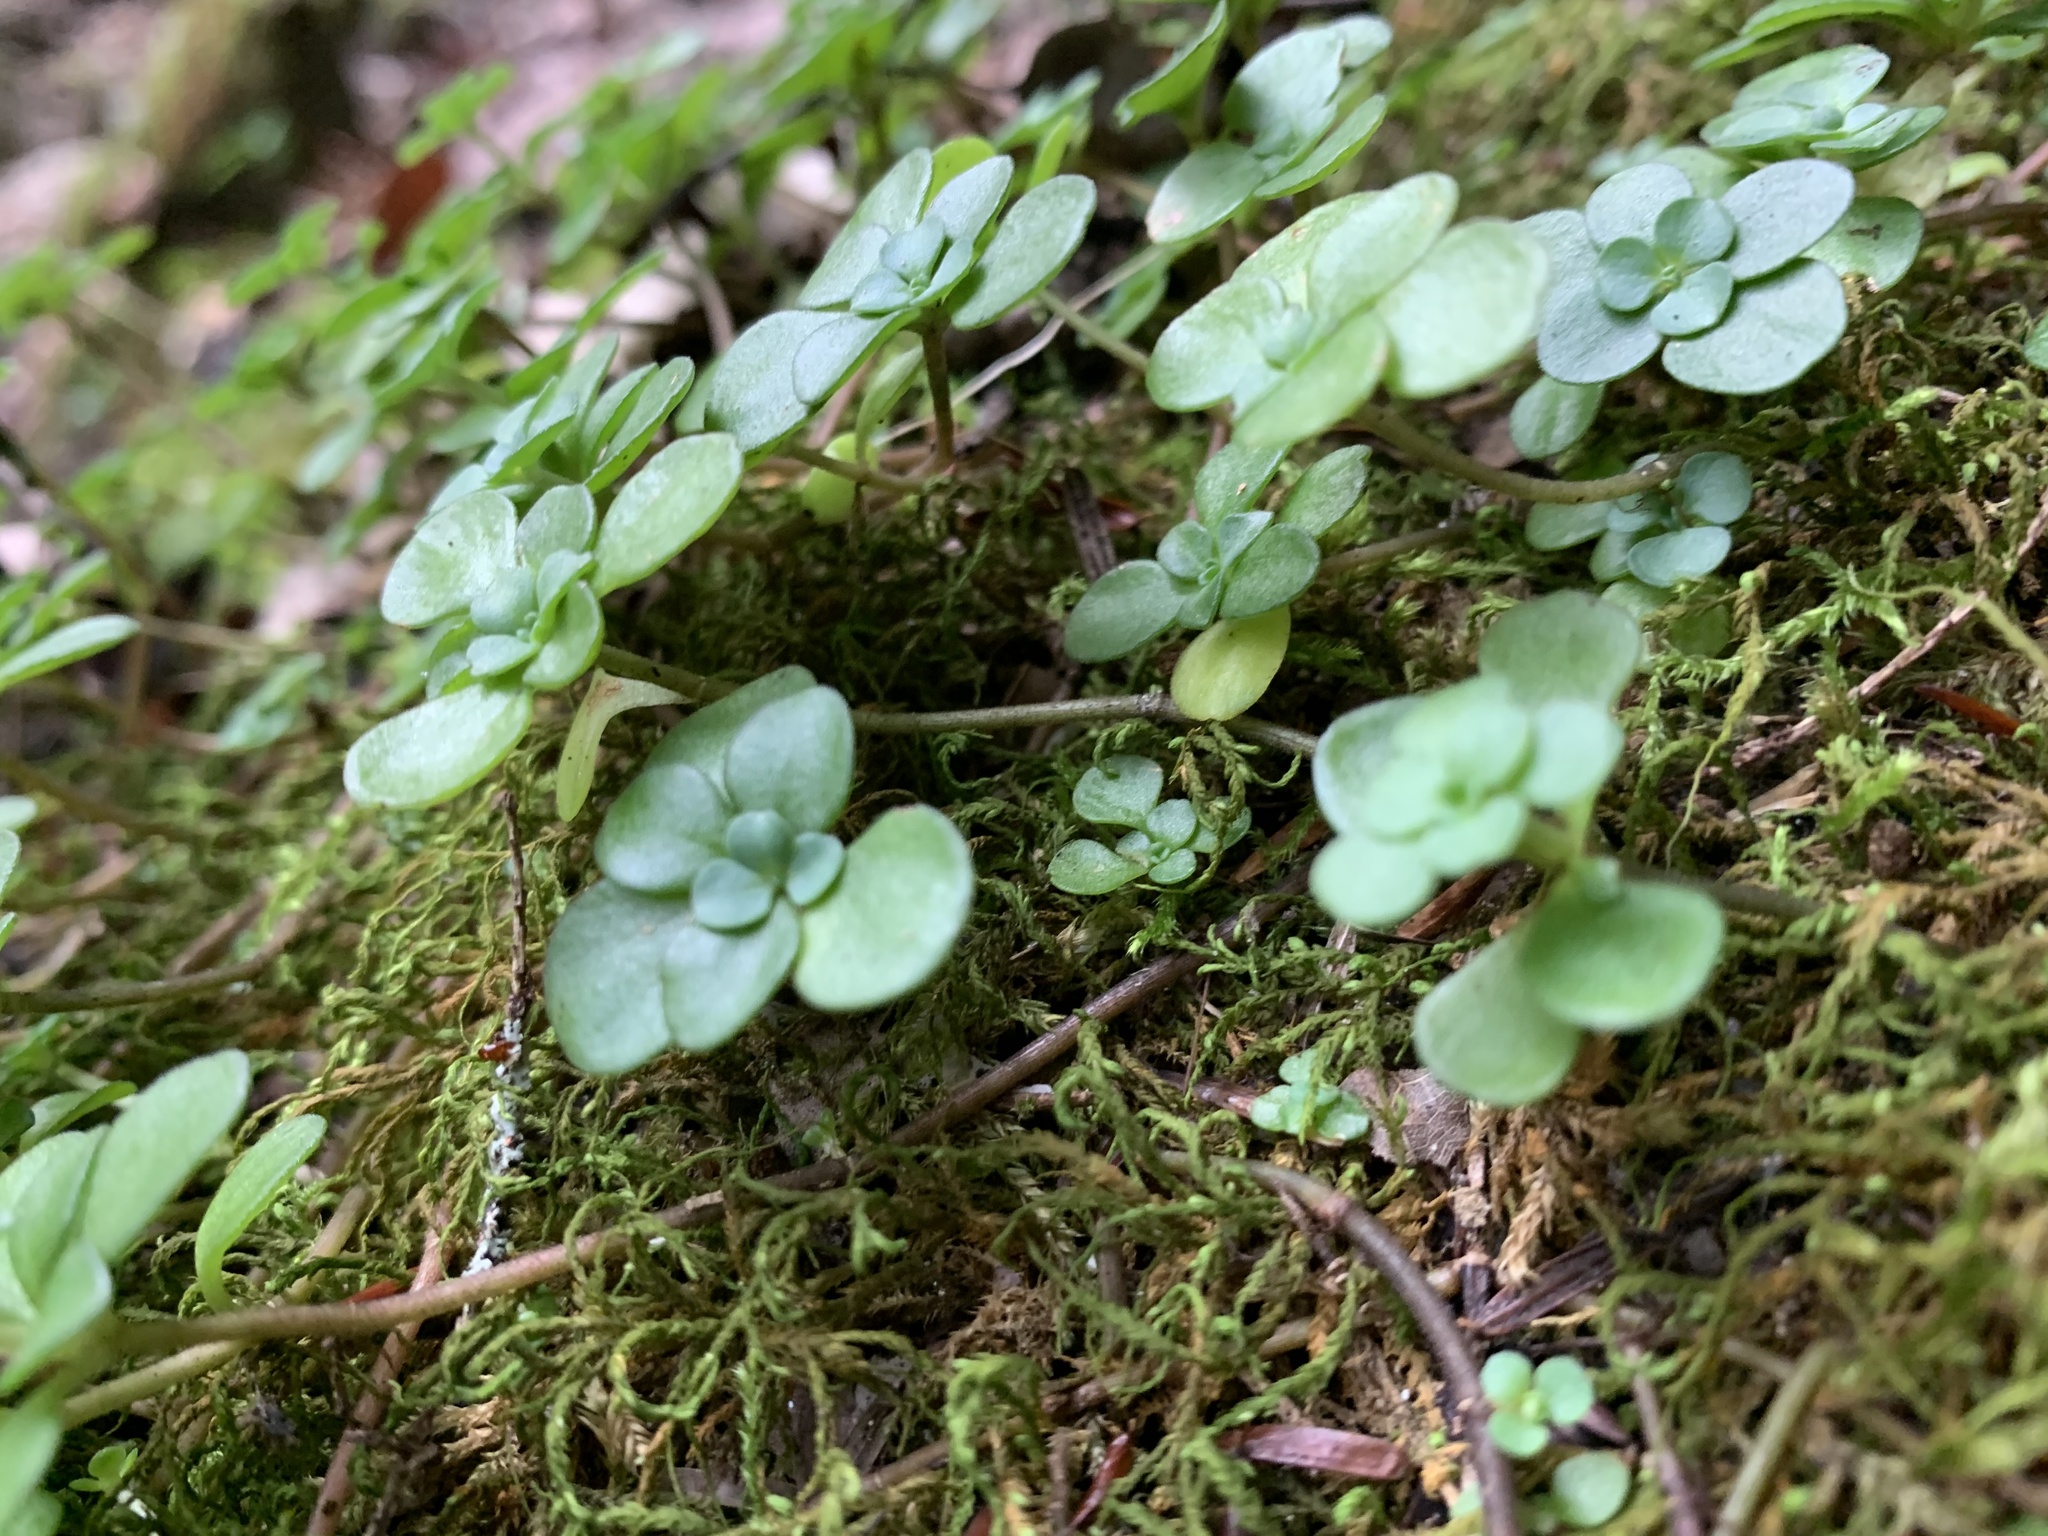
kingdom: Plantae
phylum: Tracheophyta
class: Magnoliopsida
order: Saxifragales
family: Crassulaceae
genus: Sedum
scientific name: Sedum ternatum
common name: Wild stonecrop
